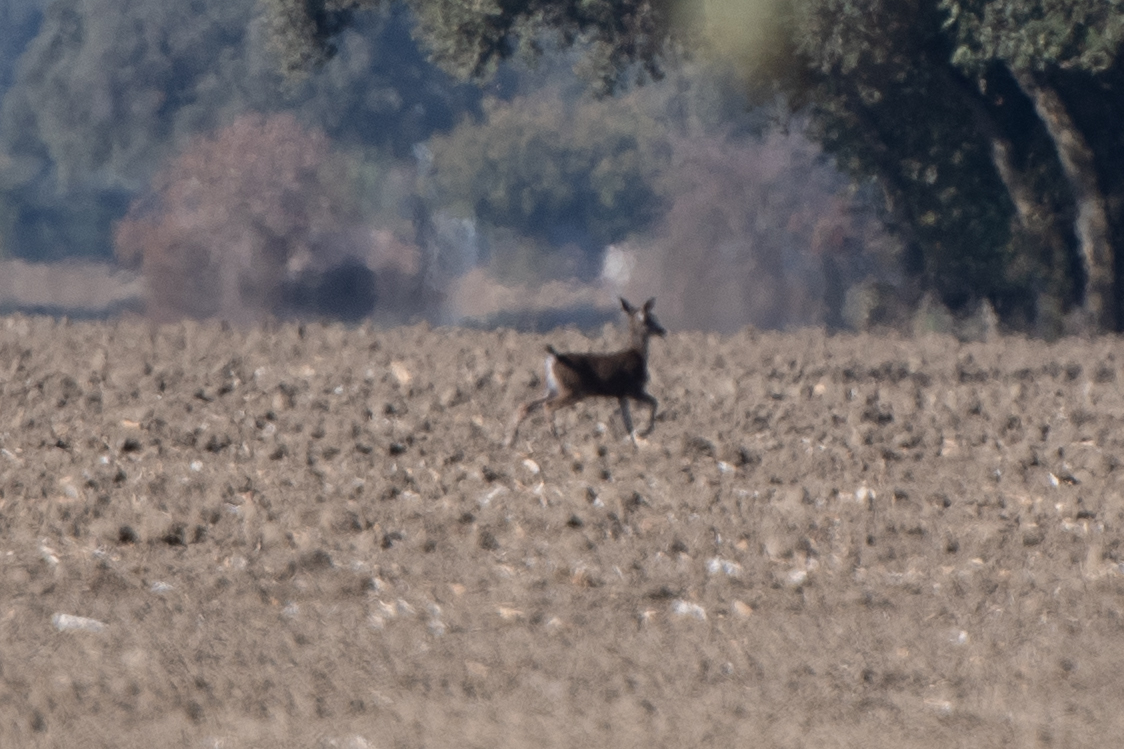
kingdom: Animalia
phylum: Chordata
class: Mammalia
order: Artiodactyla
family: Cervidae
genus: Odocoileus
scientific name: Odocoileus hemionus
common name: Mule deer
